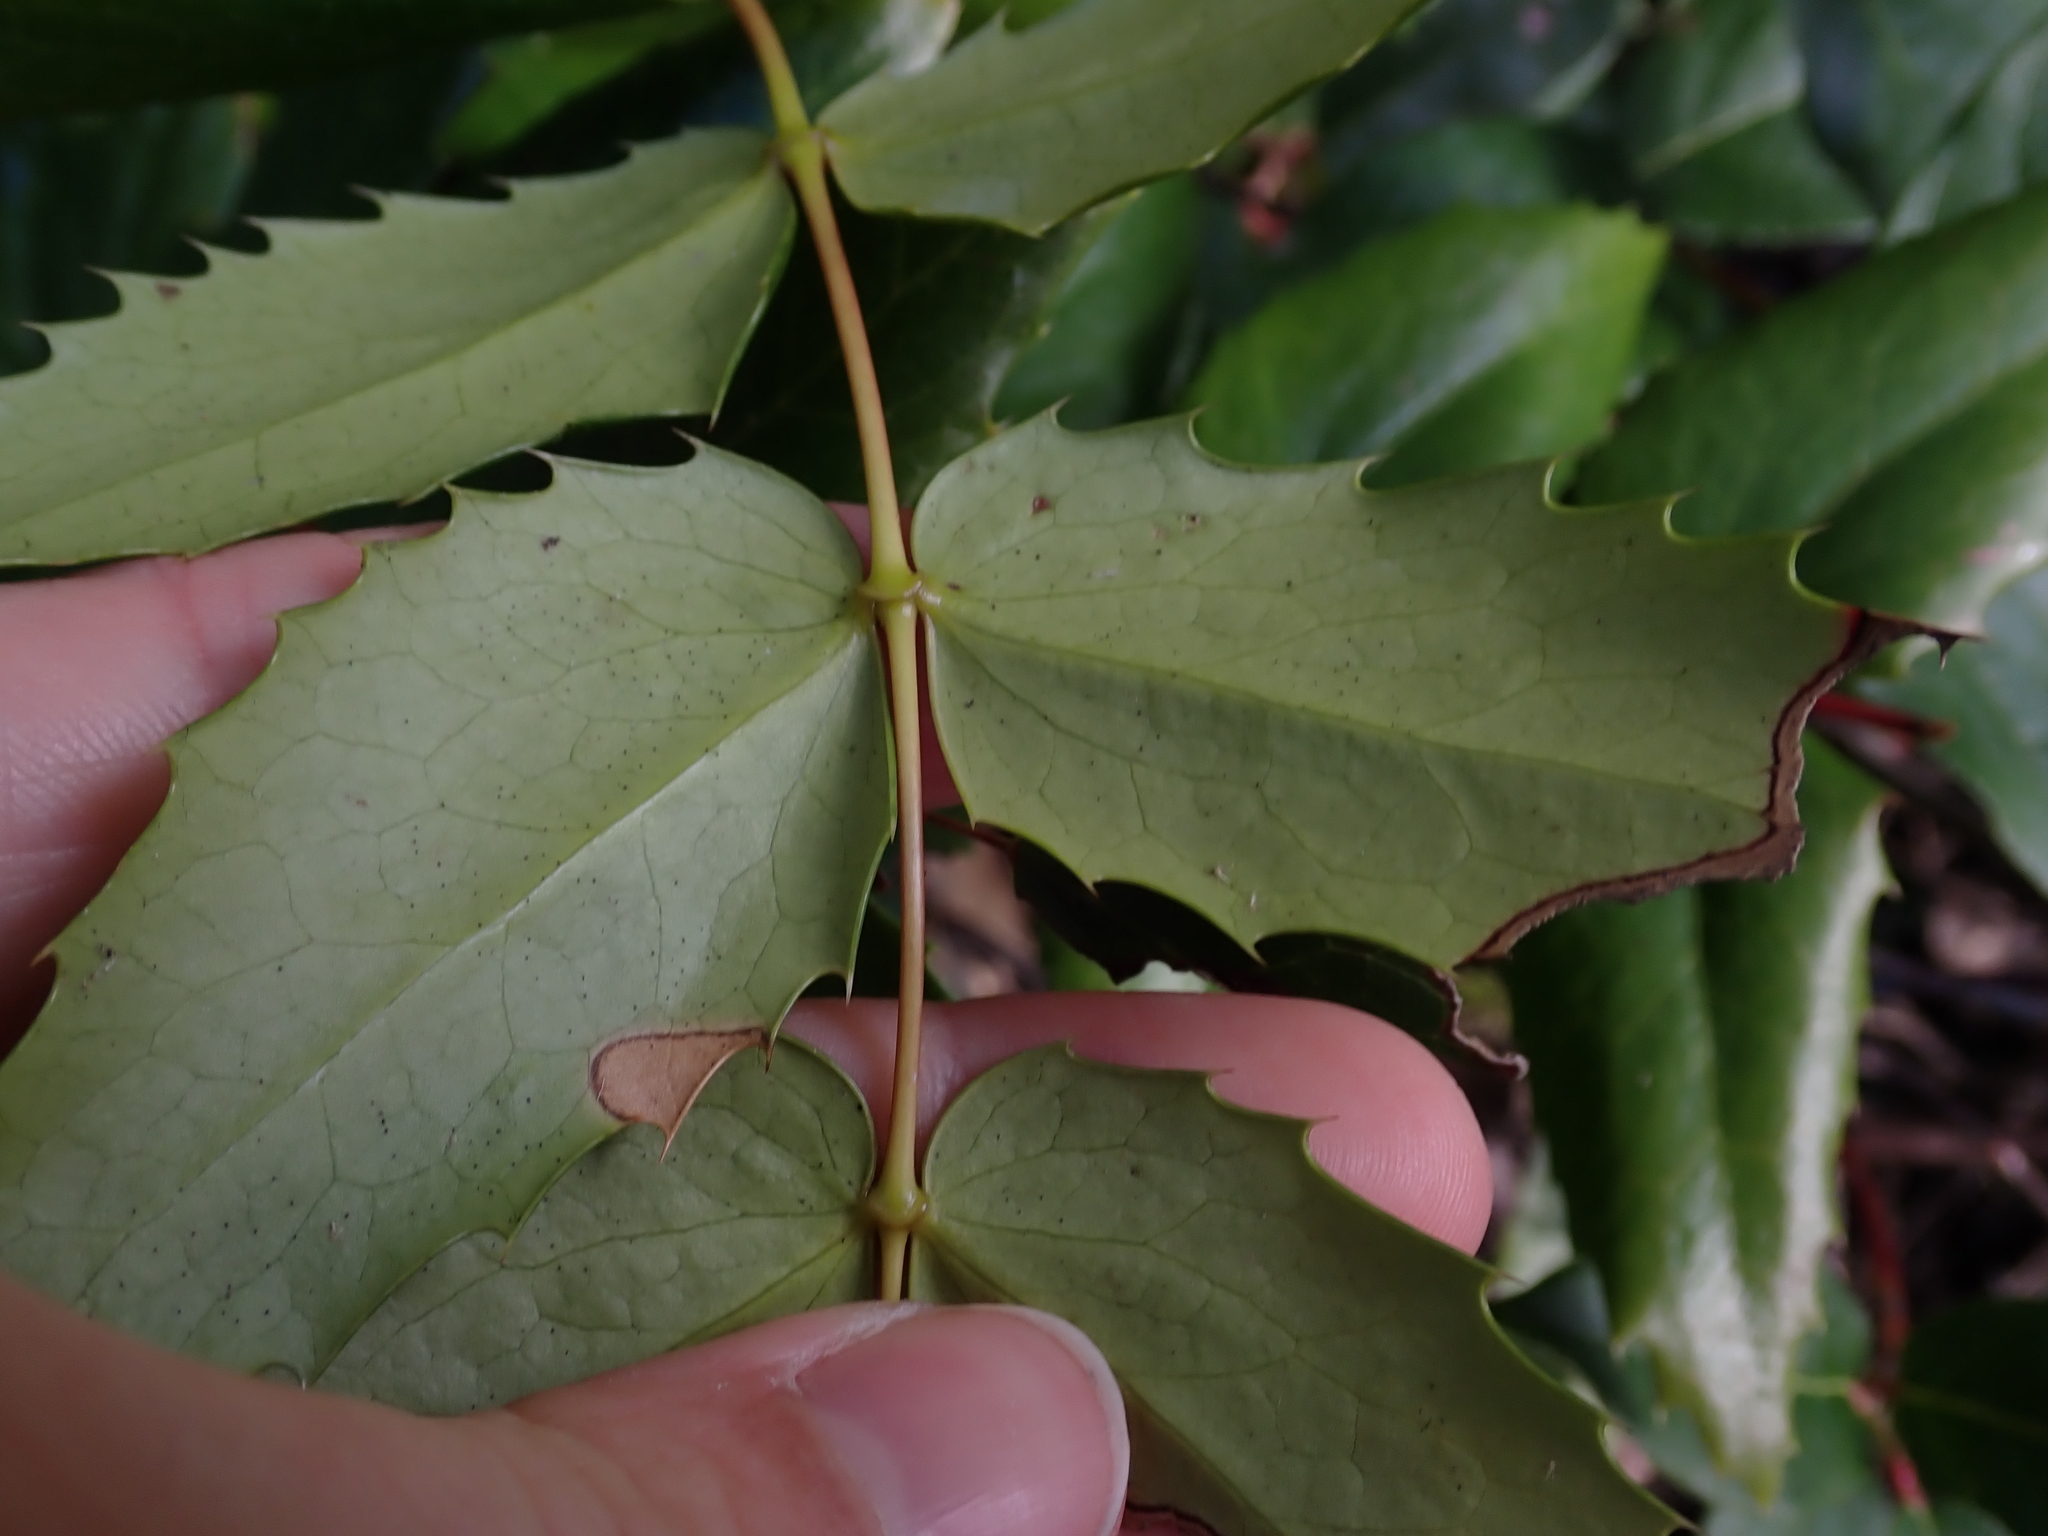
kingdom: Plantae
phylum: Tracheophyta
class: Magnoliopsida
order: Ranunculales
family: Berberidaceae
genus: Mahonia
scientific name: Mahonia nervosa
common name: Cascade oregon-grape
